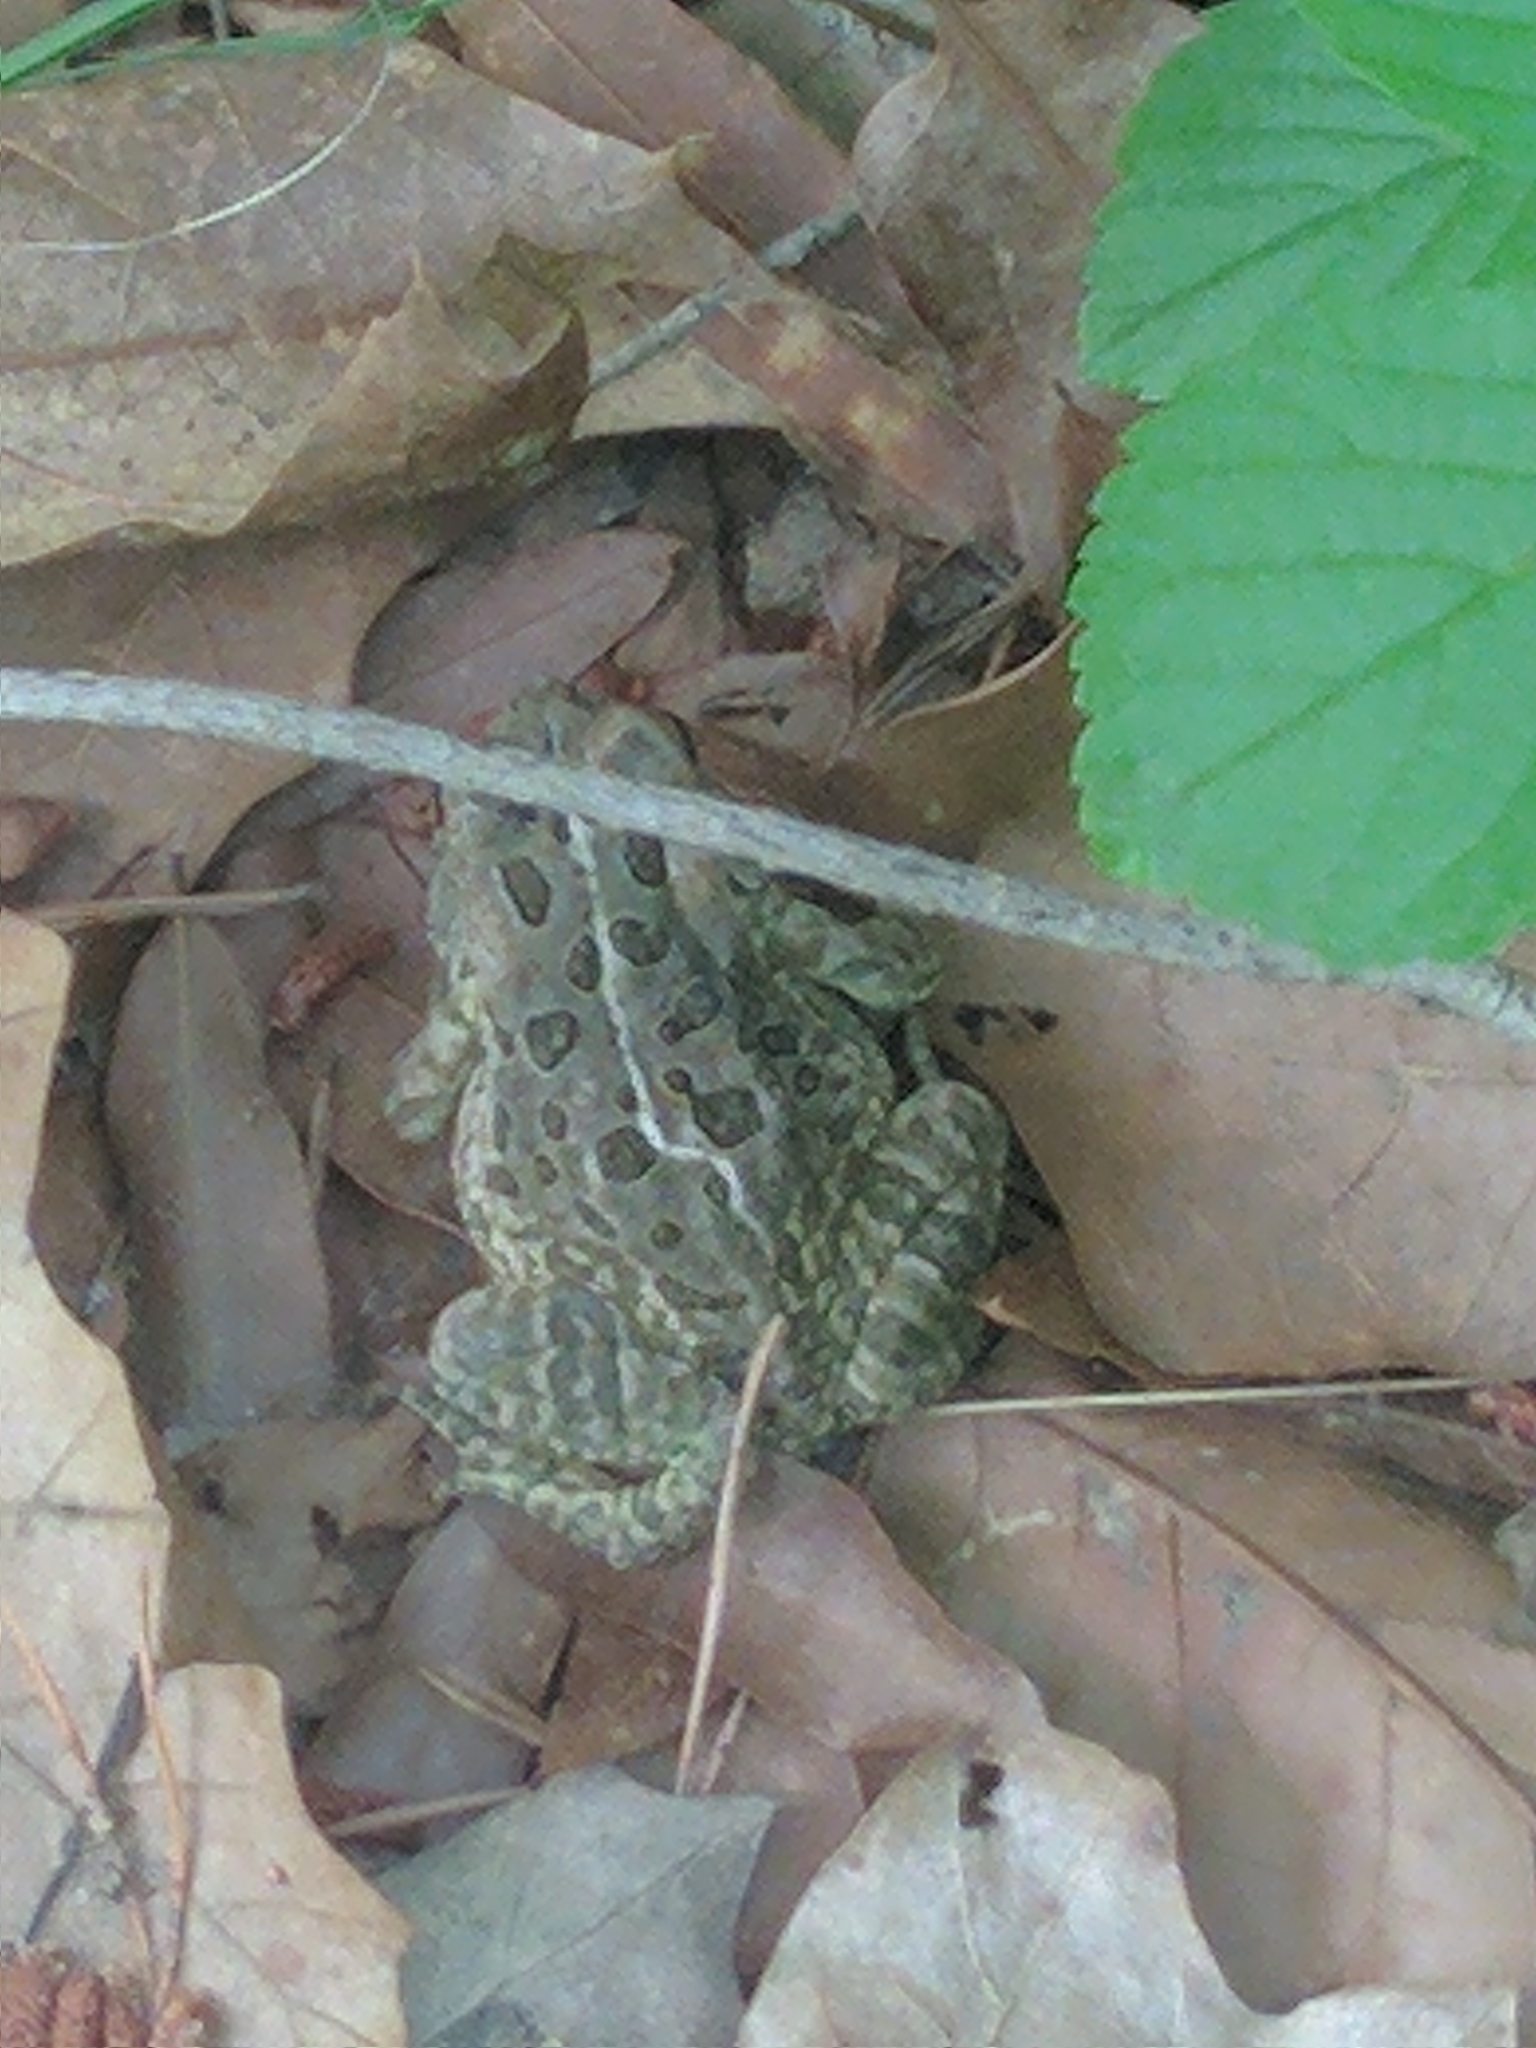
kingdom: Animalia
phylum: Chordata
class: Amphibia
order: Anura
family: Bufonidae
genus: Anaxyrus
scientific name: Anaxyrus fowleri
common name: Fowler's toad
